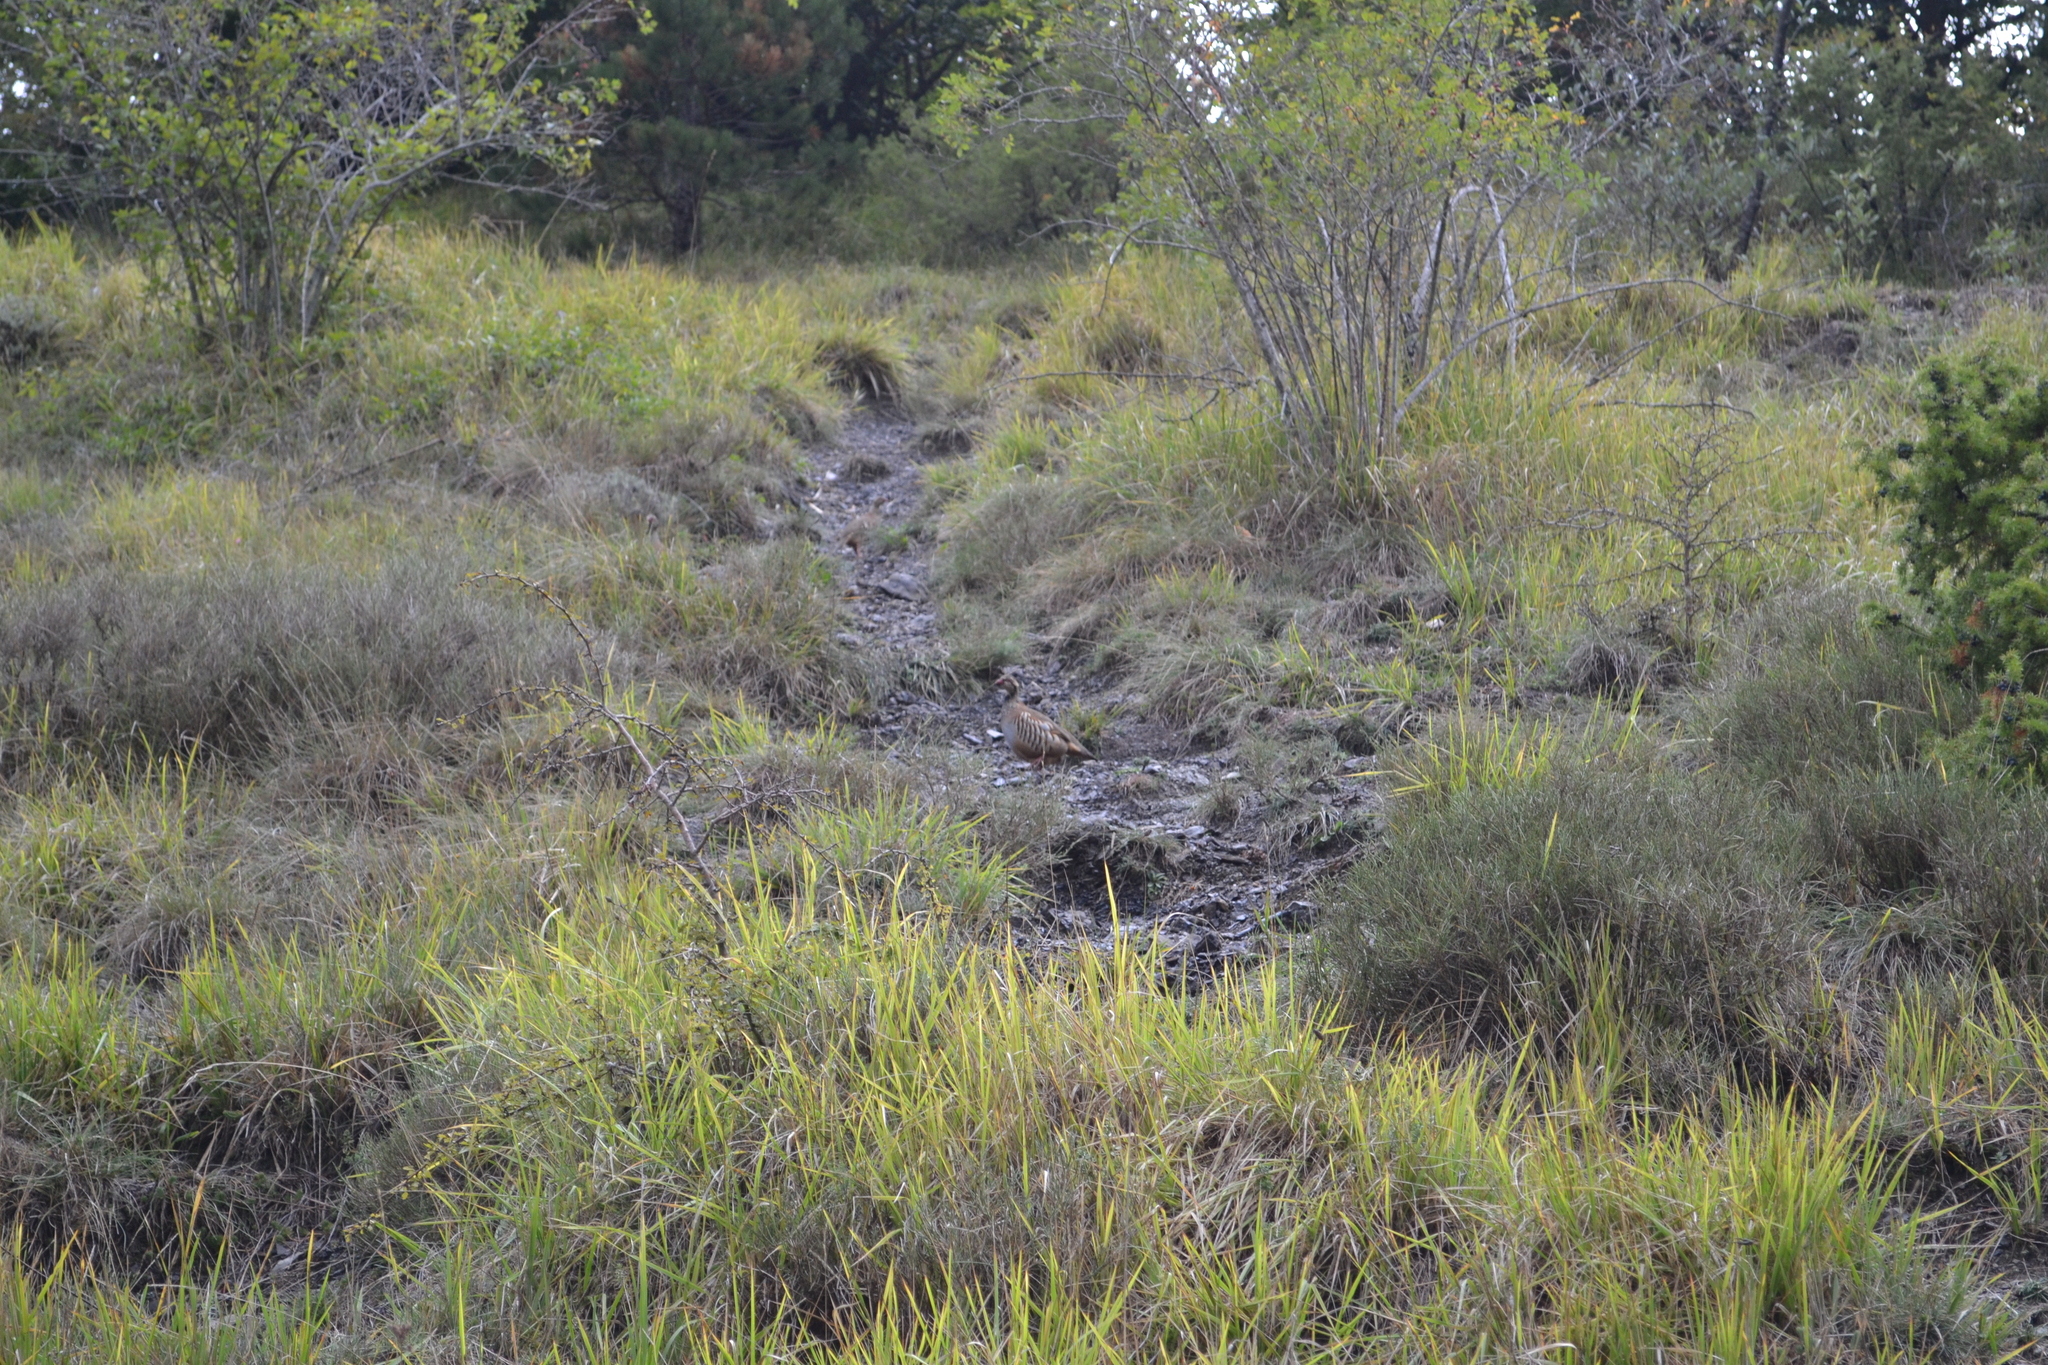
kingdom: Animalia
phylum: Chordata
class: Aves
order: Galliformes
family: Phasianidae
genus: Alectoris
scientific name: Alectoris rufa
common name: Red-legged partridge
